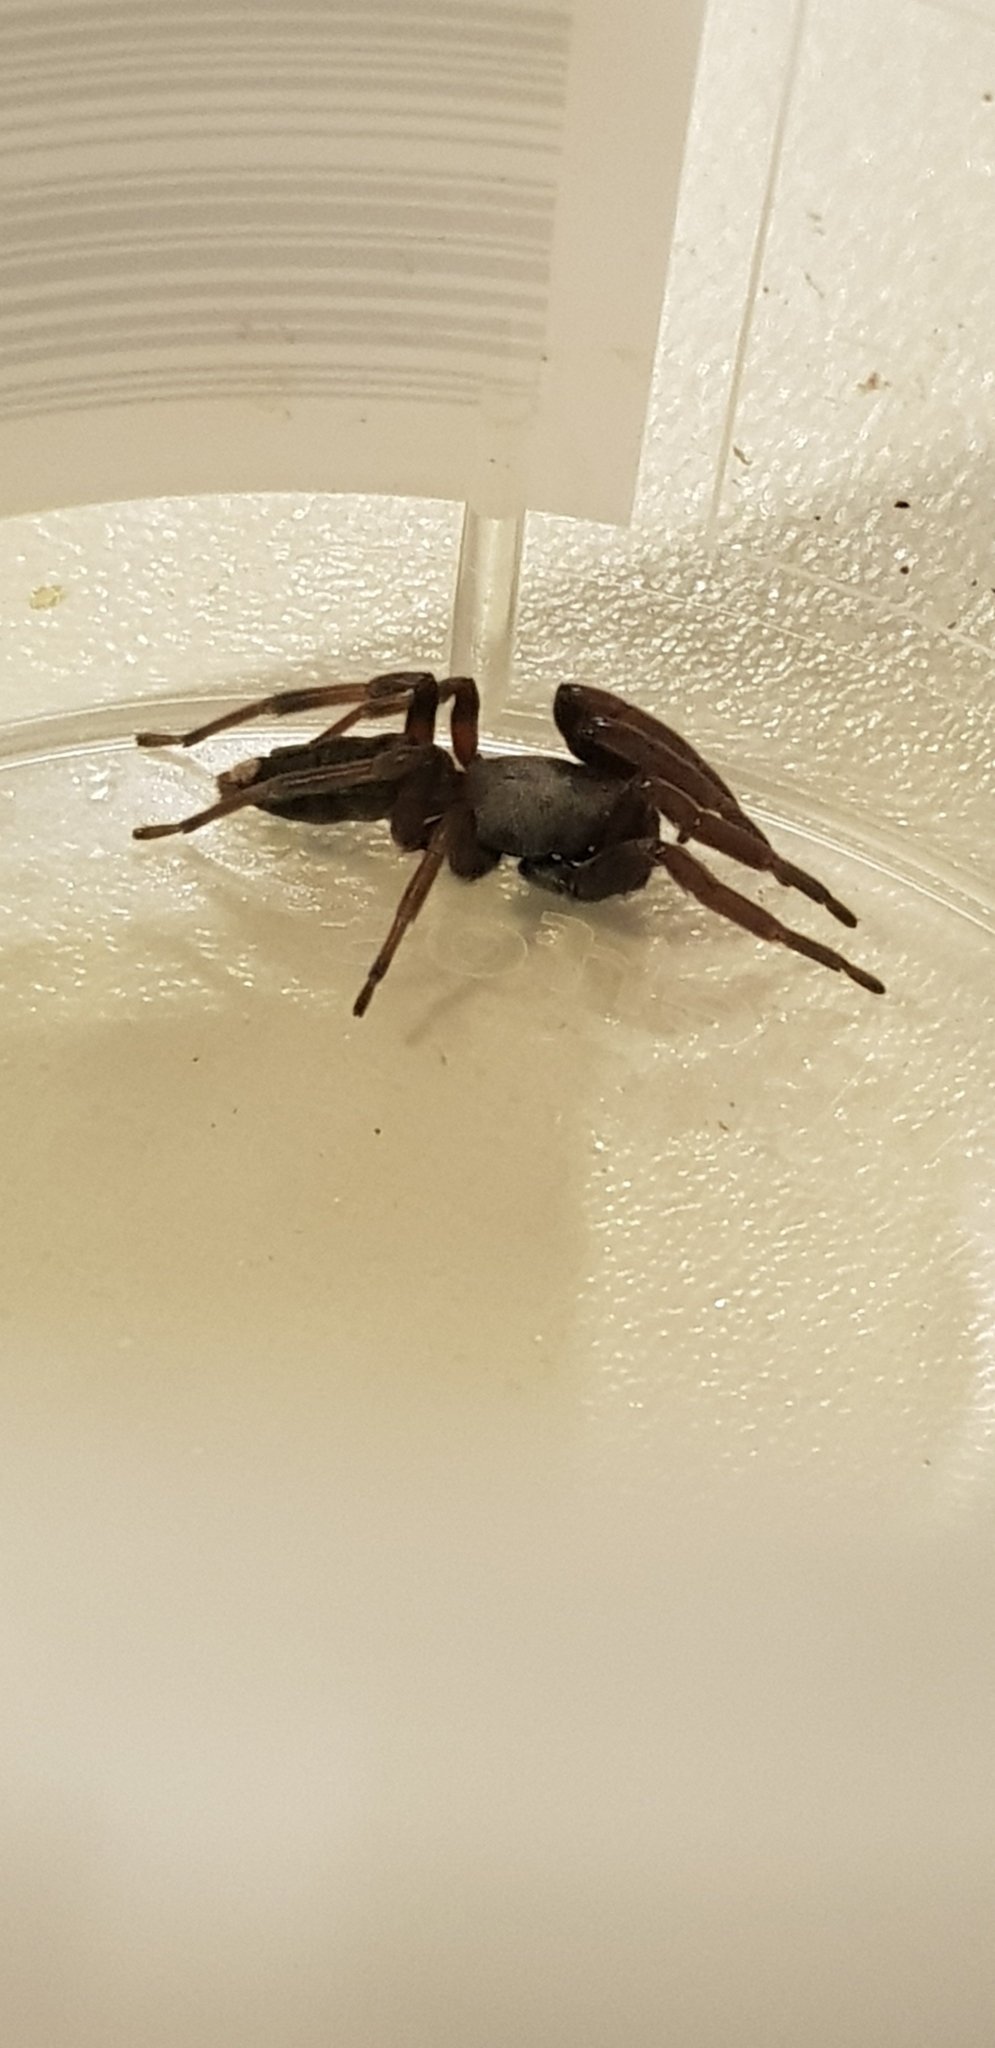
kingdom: Animalia
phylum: Arthropoda
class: Arachnida
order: Araneae
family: Lamponidae
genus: Lampona
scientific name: Lampona murina
